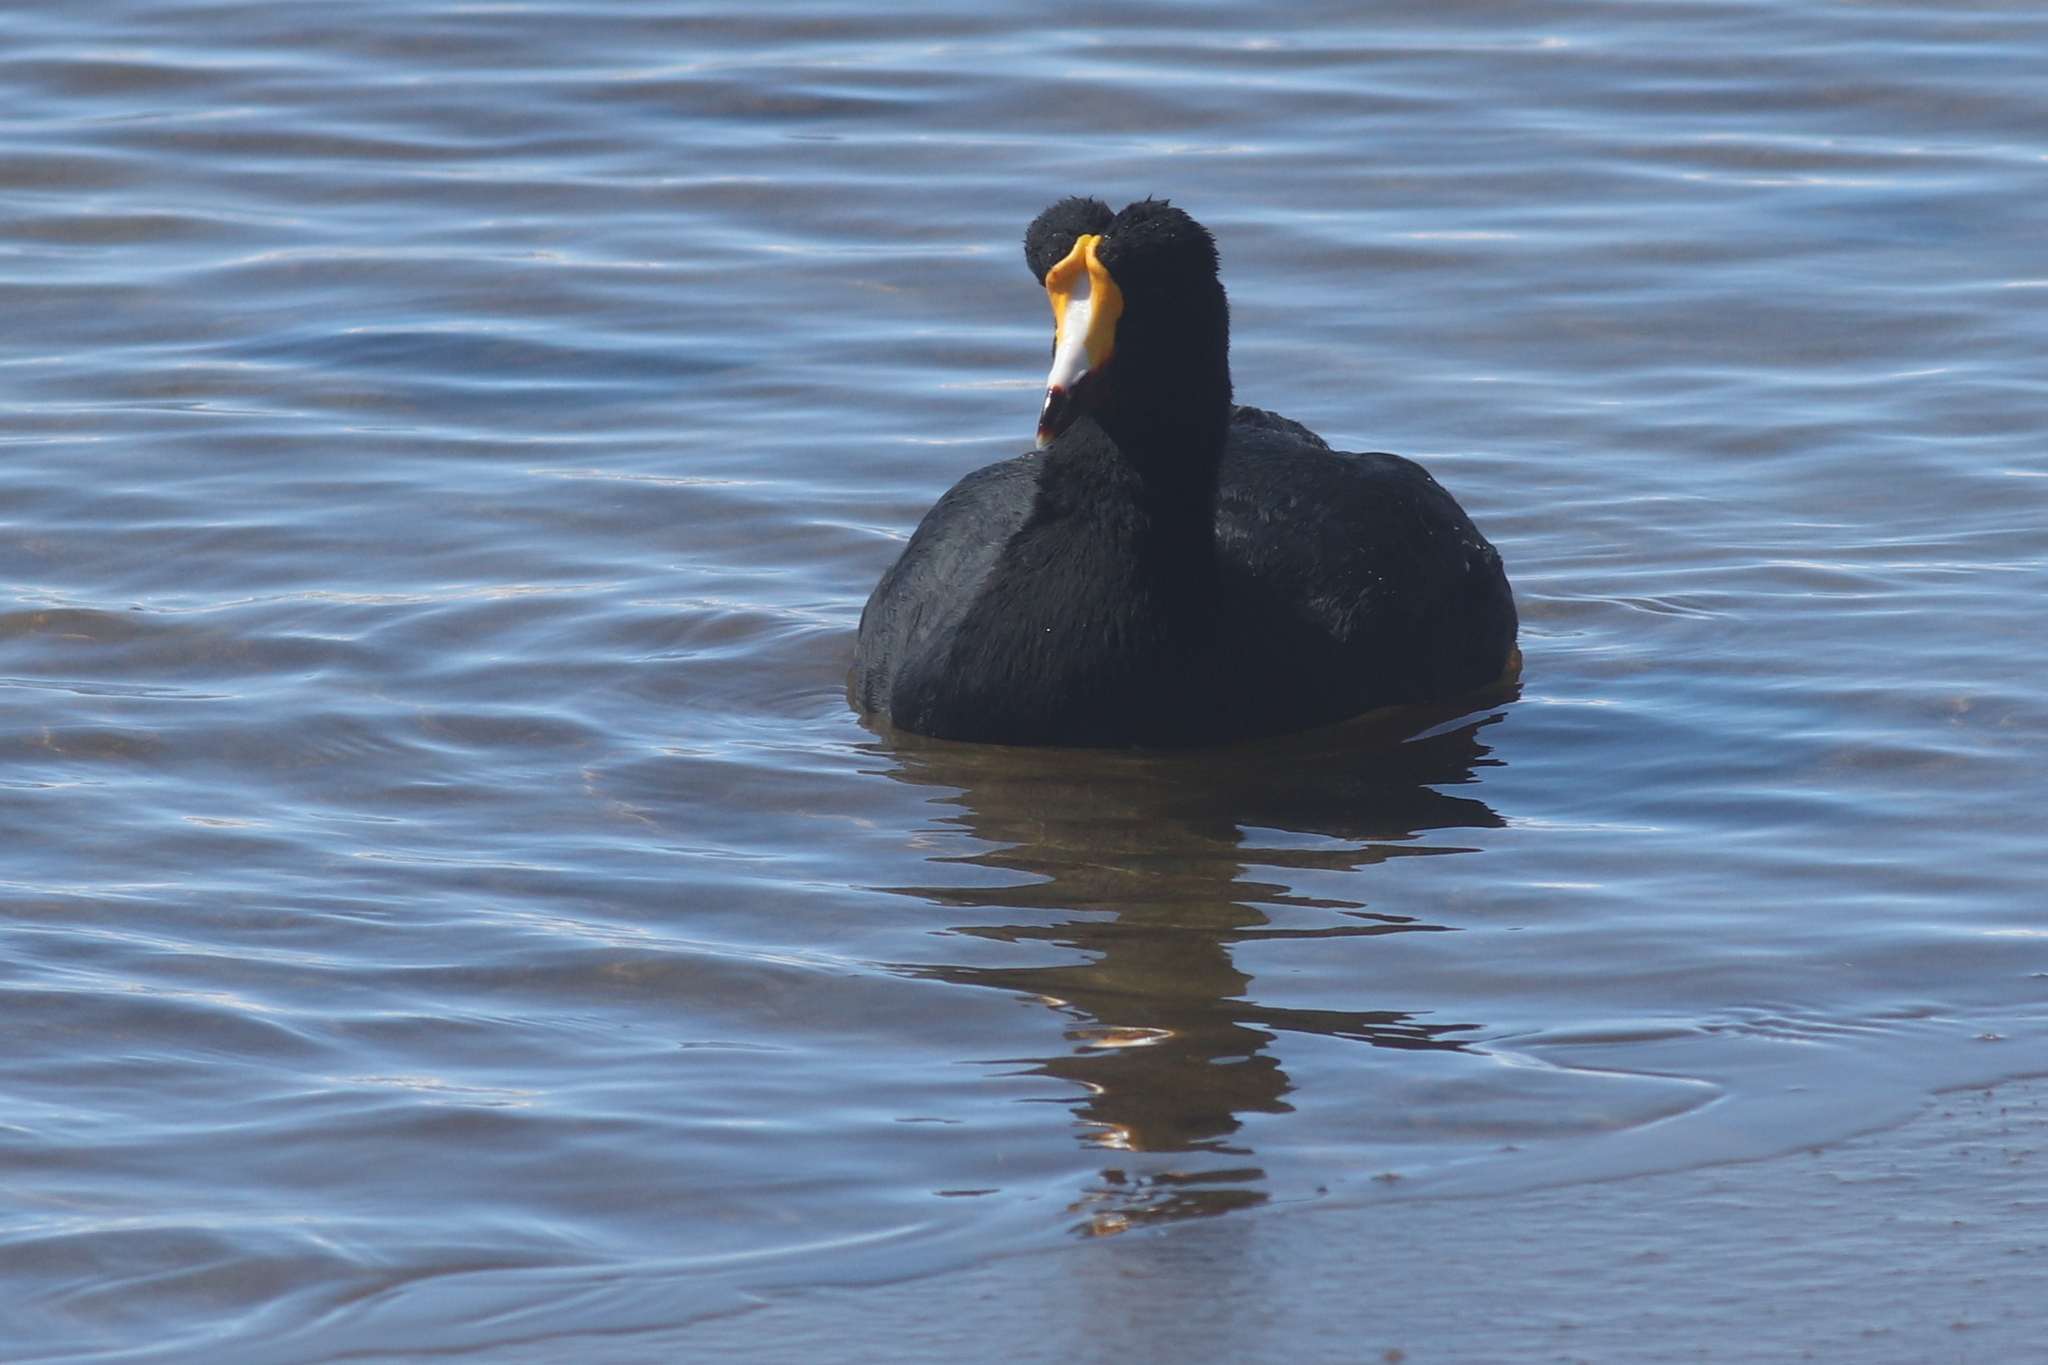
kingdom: Animalia
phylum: Chordata
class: Aves
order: Gruiformes
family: Rallidae
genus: Fulica
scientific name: Fulica gigantea
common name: Giant coot
